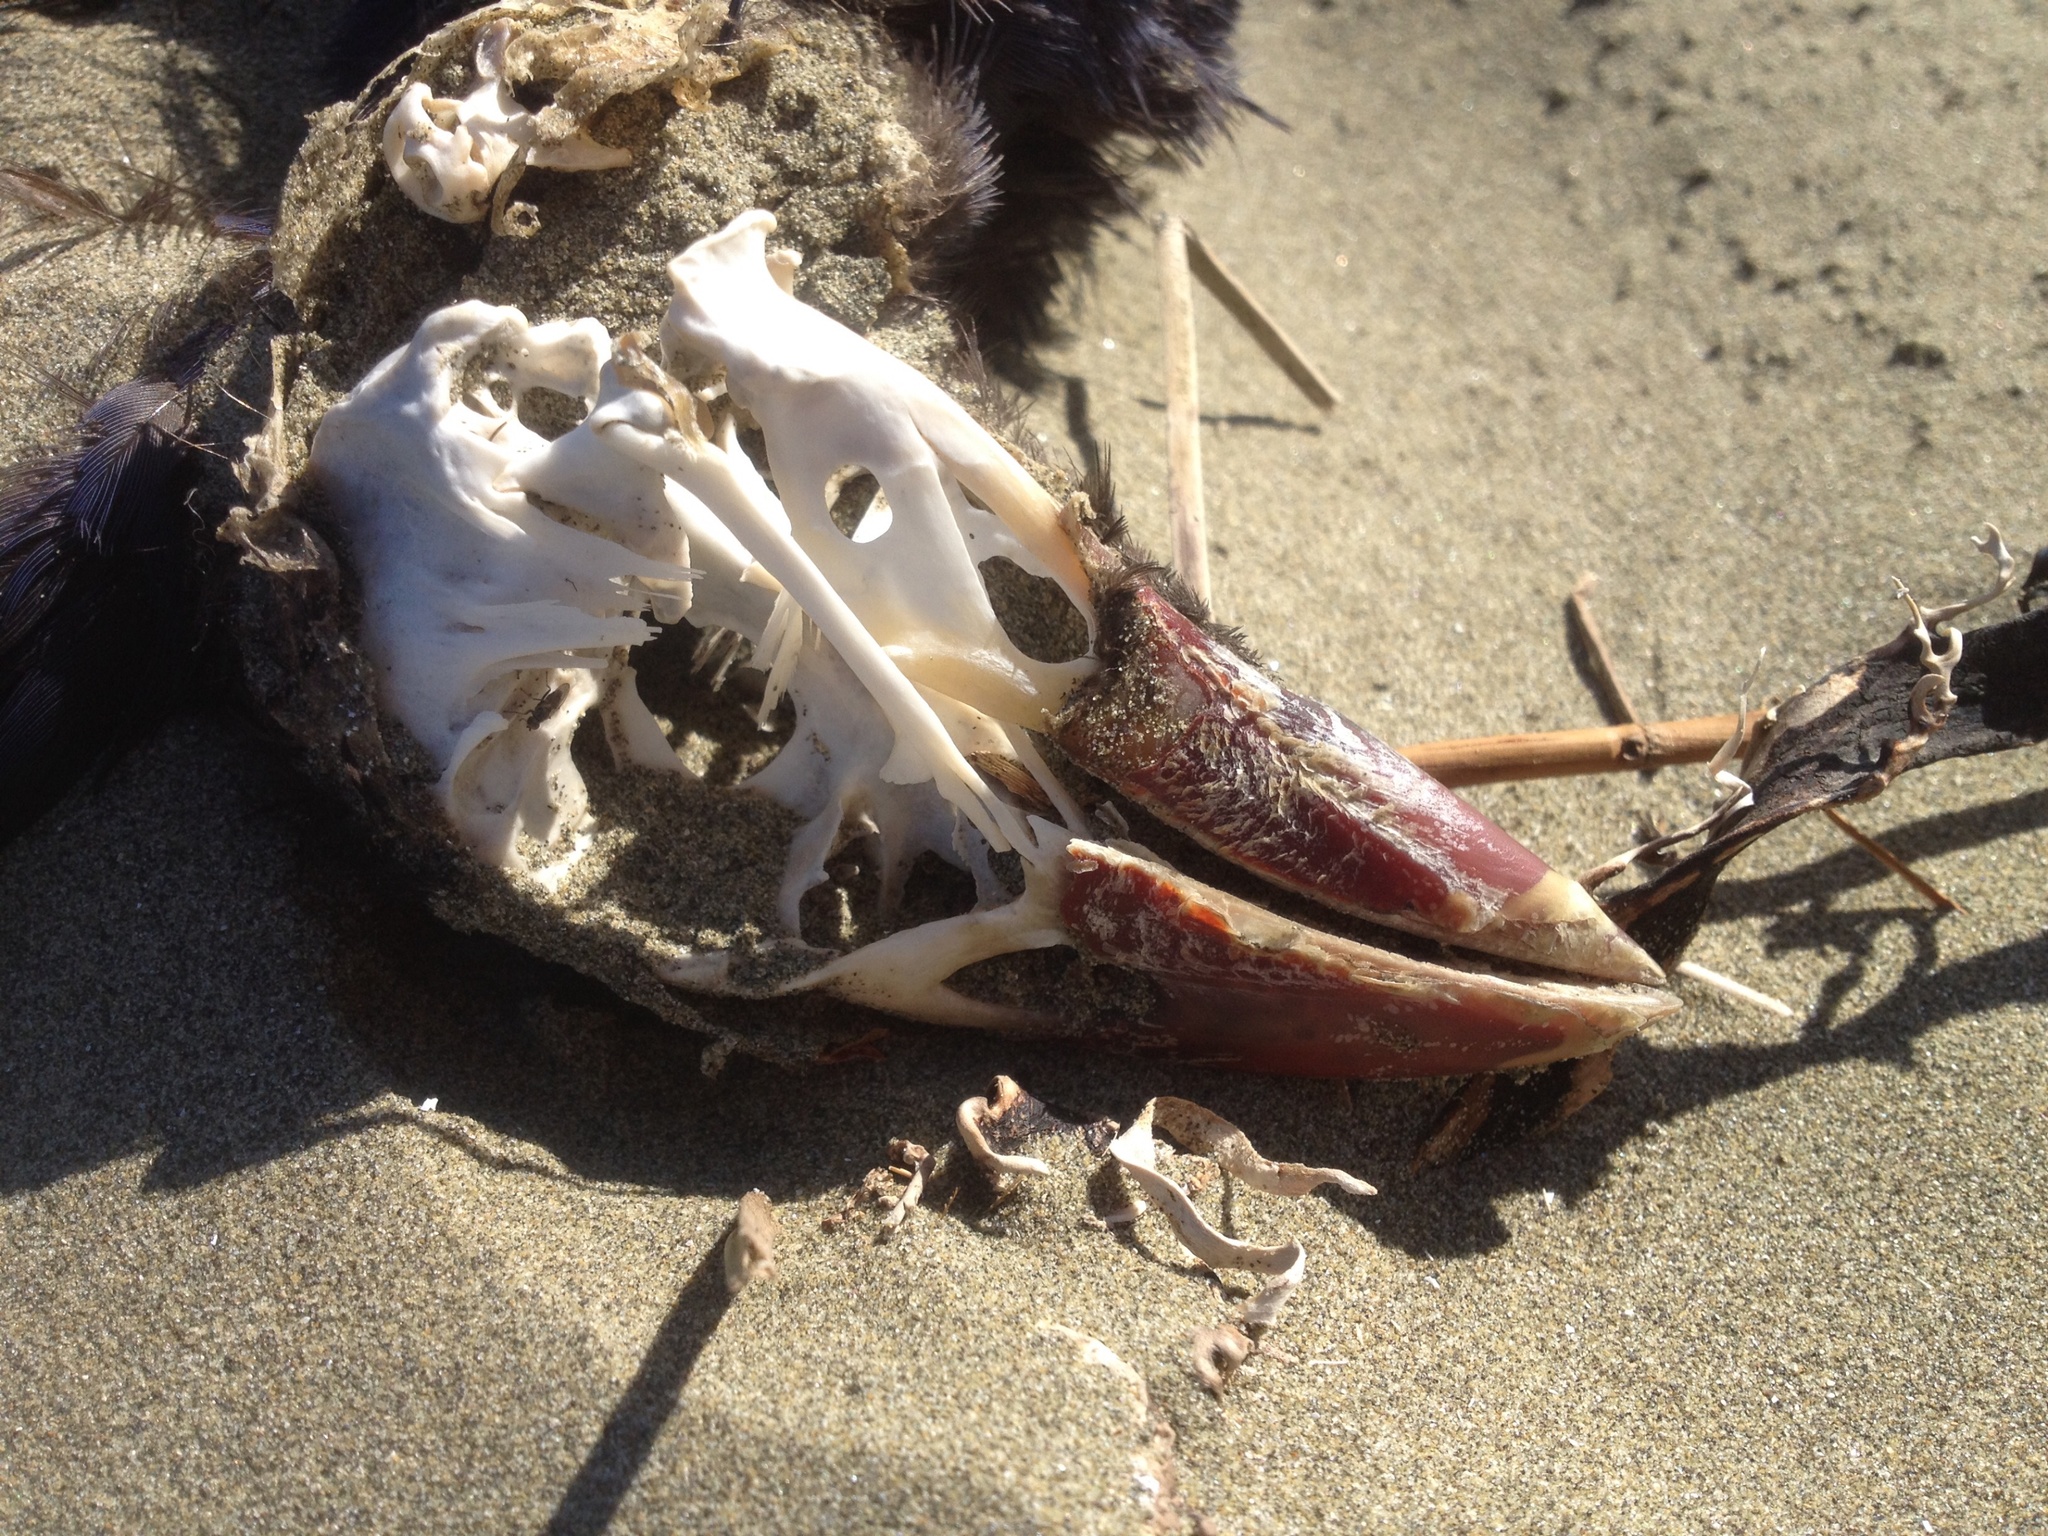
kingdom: Animalia
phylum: Chordata
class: Aves
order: Gruiformes
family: Rallidae
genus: Porphyrio
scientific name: Porphyrio melanotus
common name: Australasian swamphen
